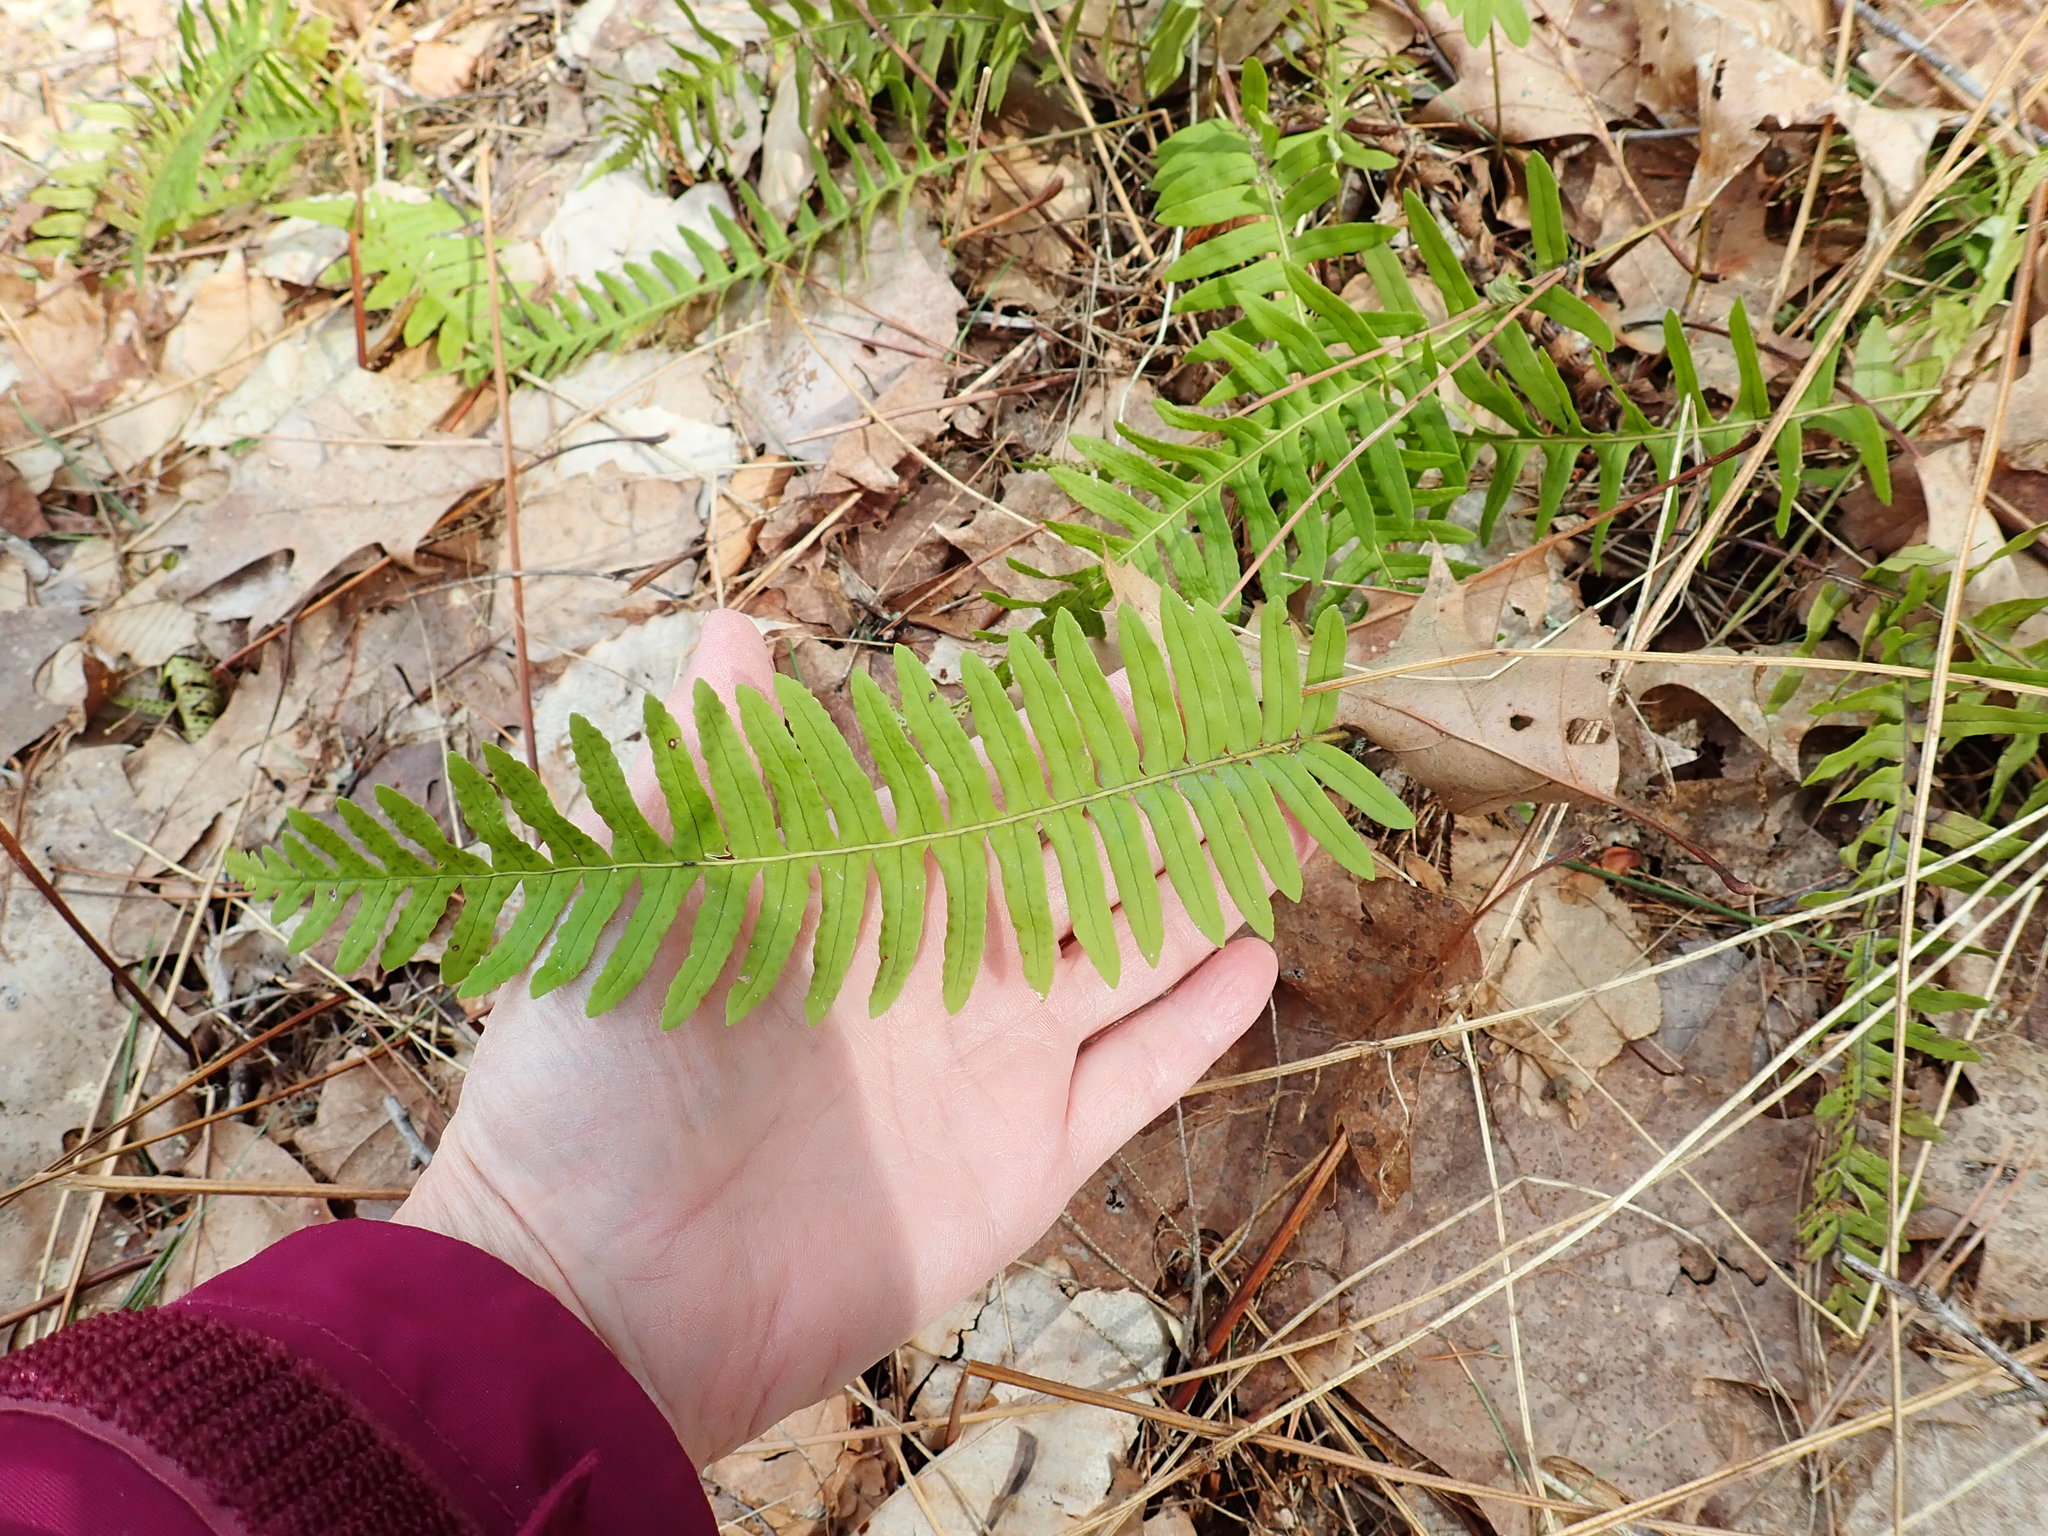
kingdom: Plantae
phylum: Tracheophyta
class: Polypodiopsida
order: Polypodiales
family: Polypodiaceae
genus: Polypodium
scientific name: Polypodium
